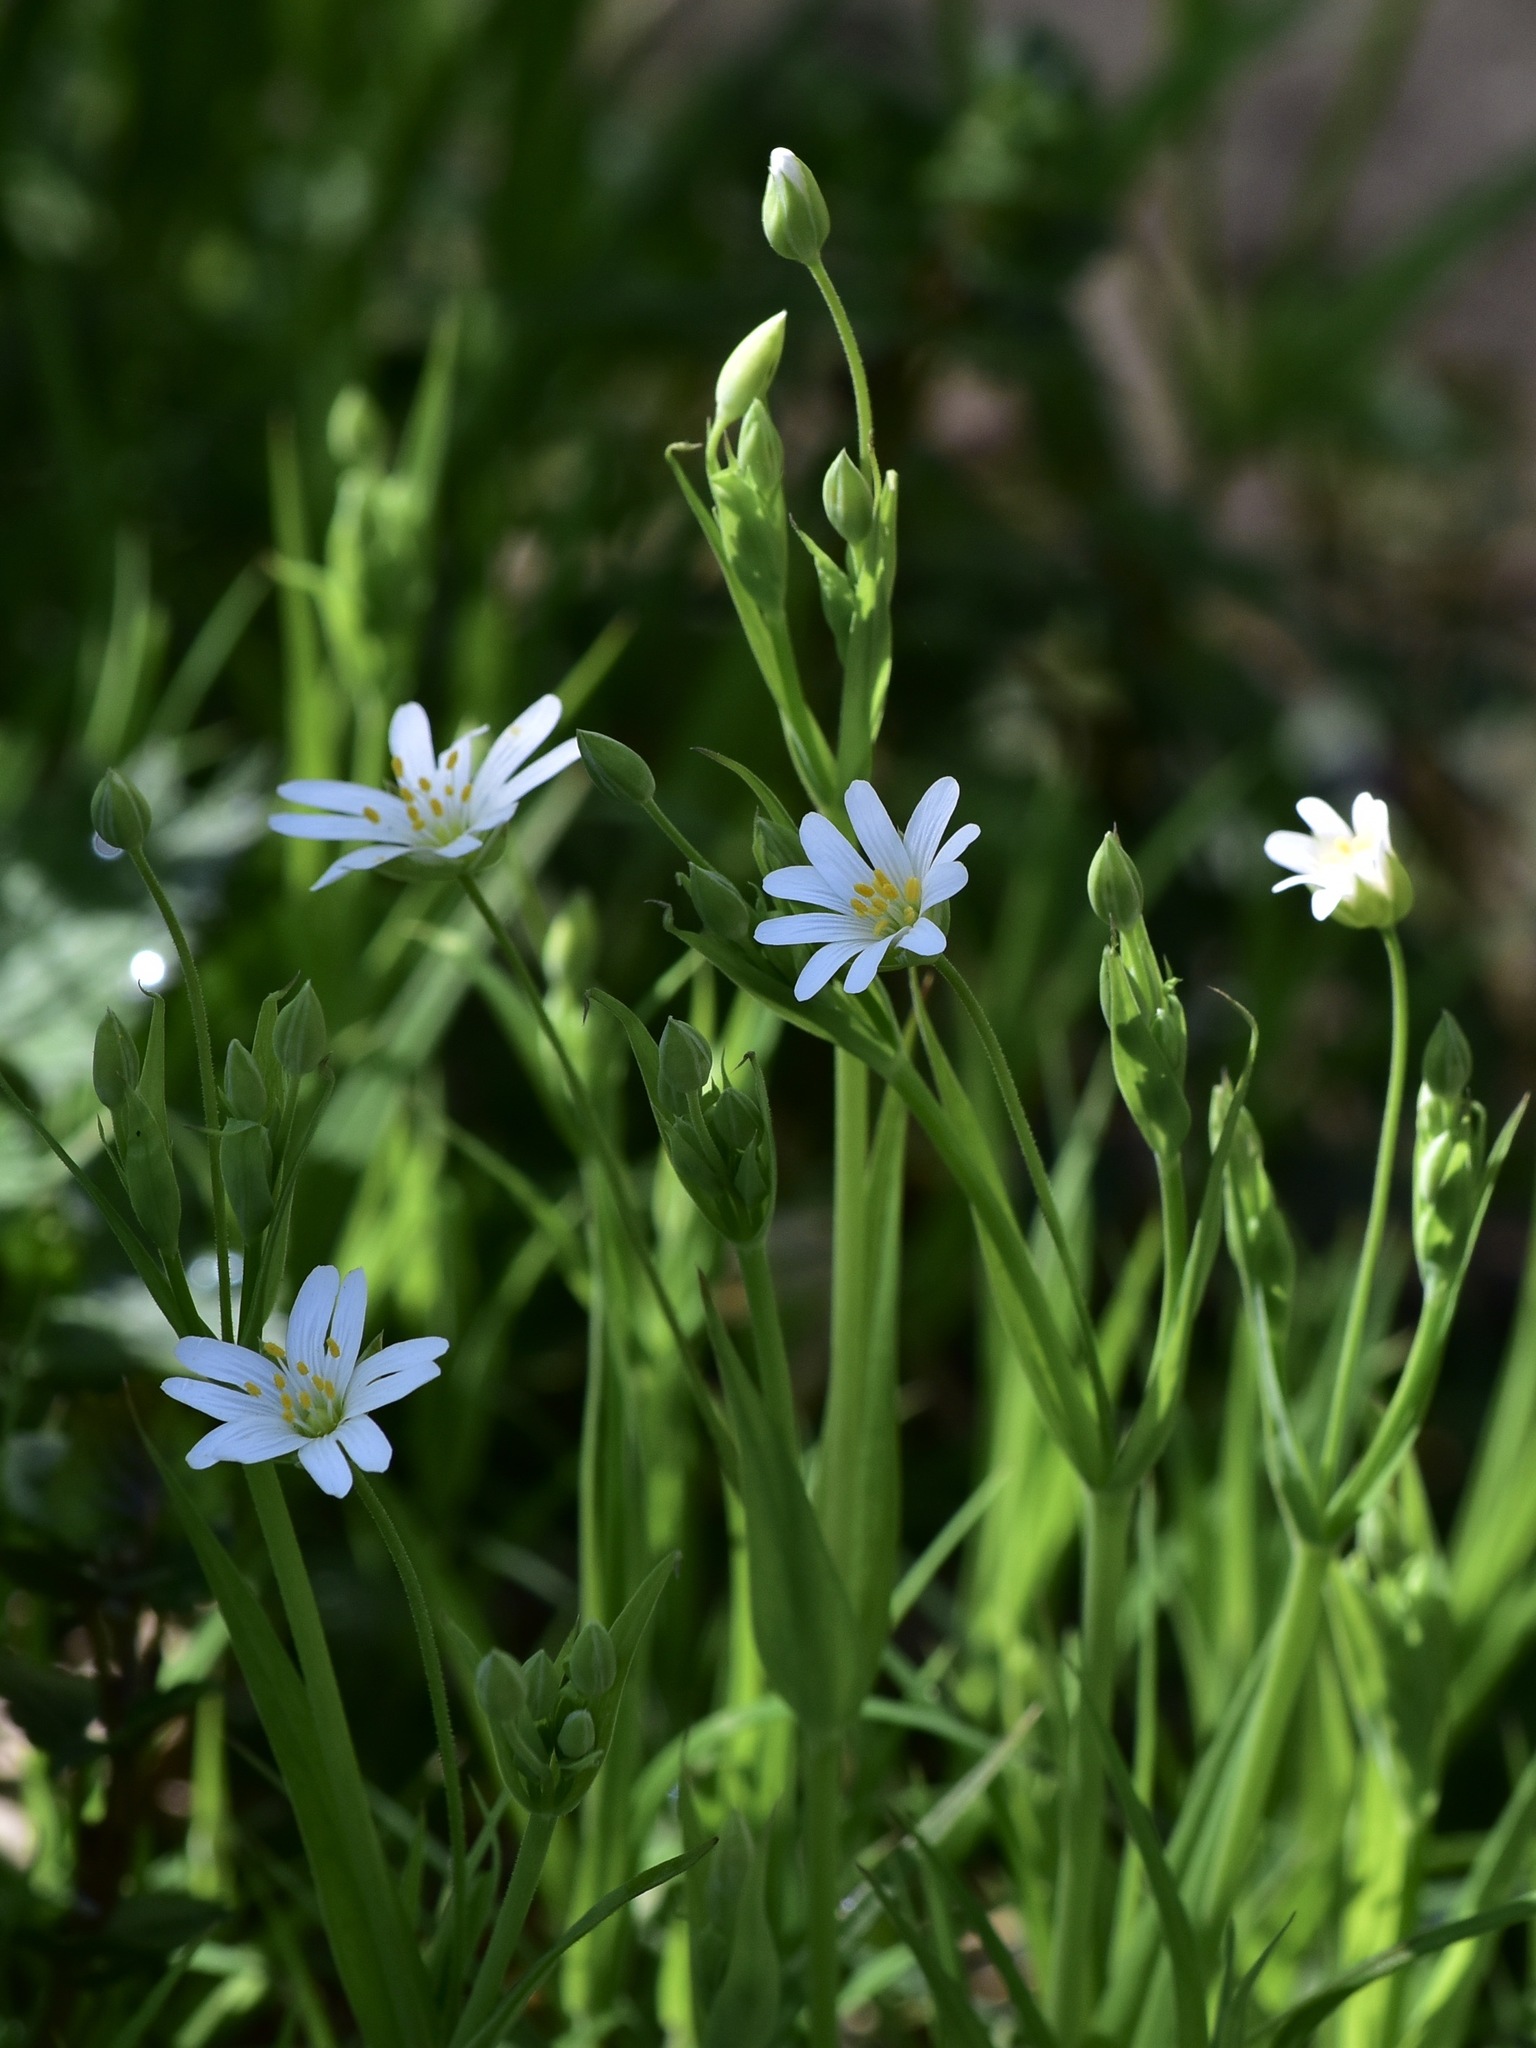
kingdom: Plantae
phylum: Tracheophyta
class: Magnoliopsida
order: Caryophyllales
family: Caryophyllaceae
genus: Rabelera
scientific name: Rabelera holostea
